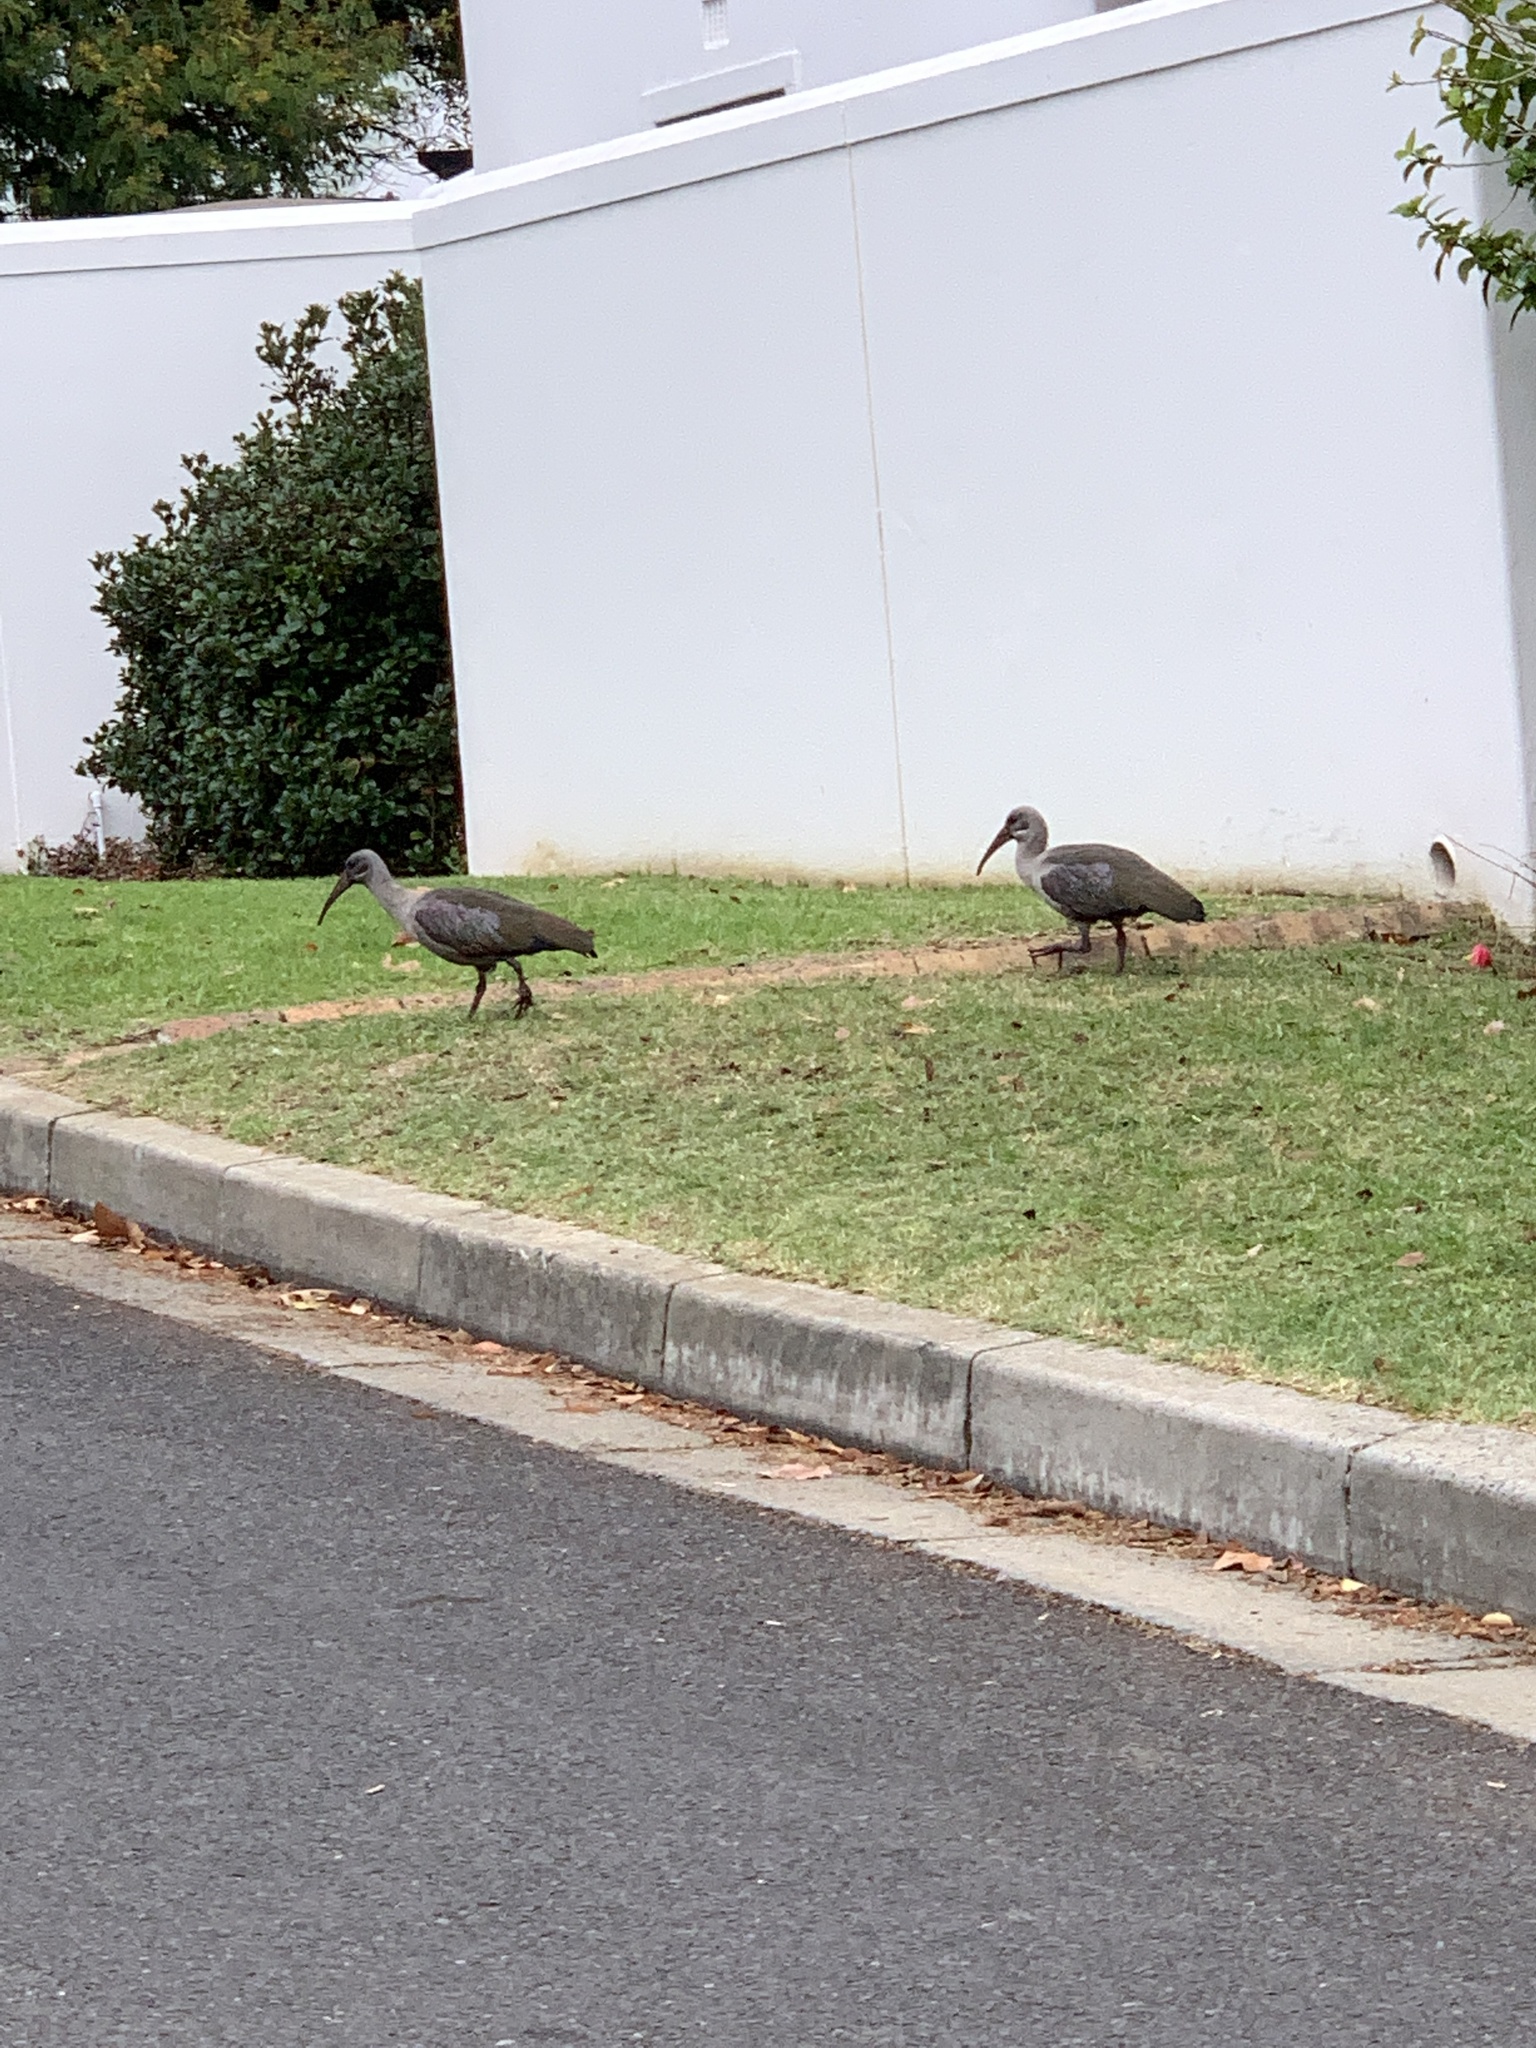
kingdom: Animalia
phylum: Chordata
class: Aves
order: Pelecaniformes
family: Threskiornithidae
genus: Bostrychia
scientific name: Bostrychia hagedash
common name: Hadada ibis
